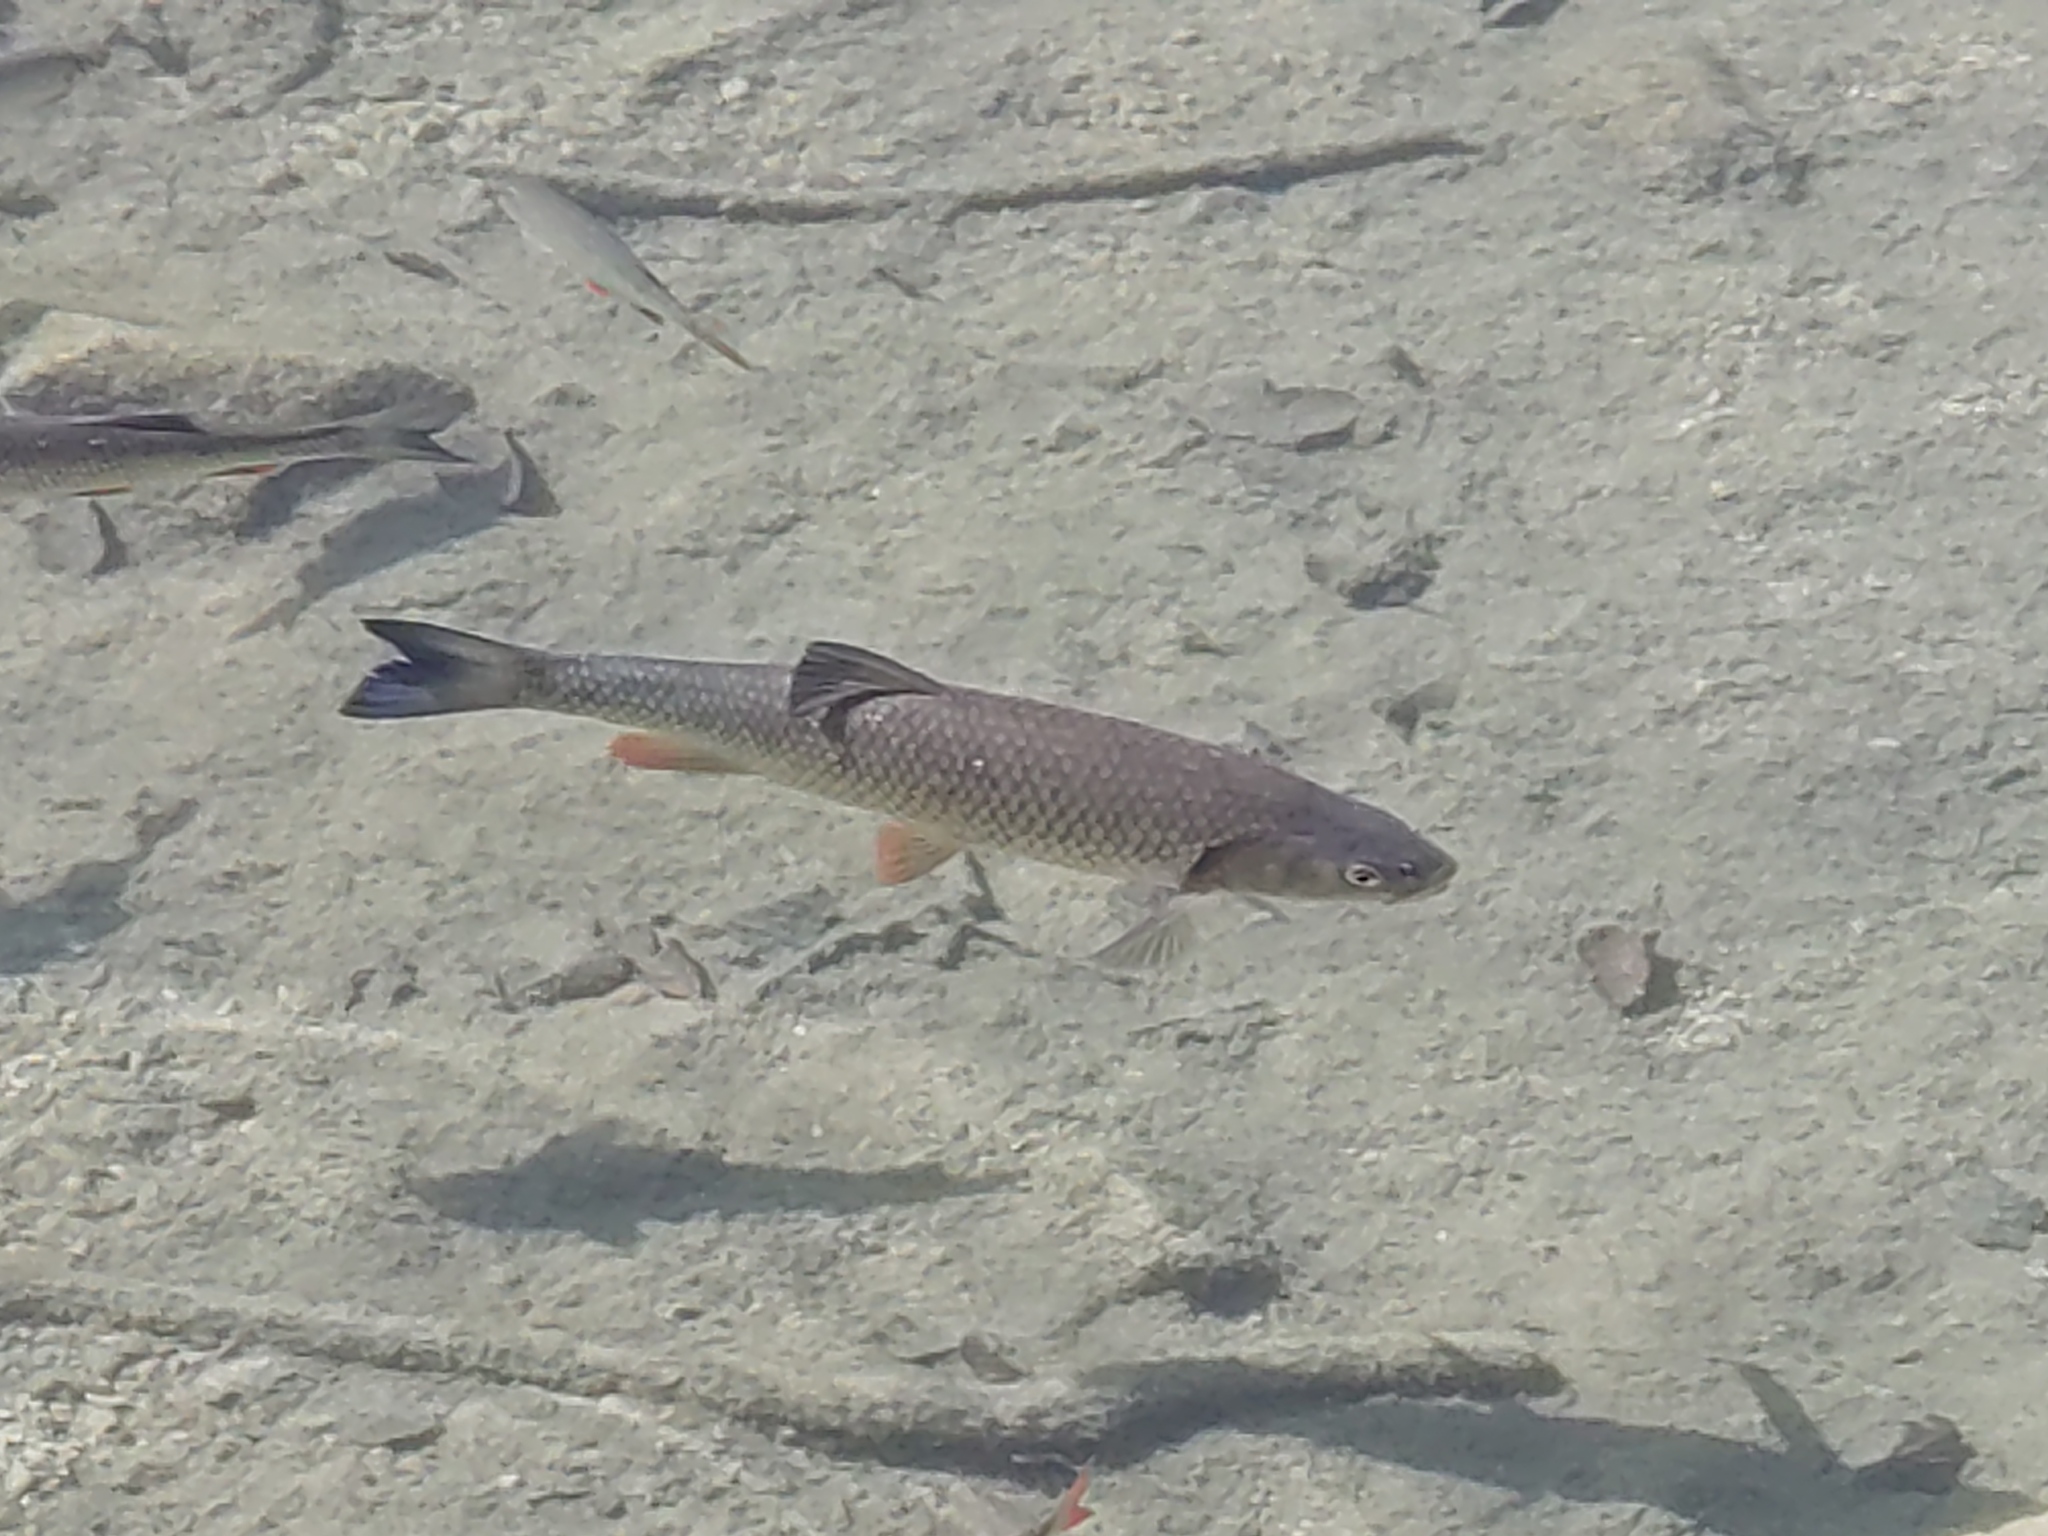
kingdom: Animalia
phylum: Chordata
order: Cypriniformes
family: Cyprinidae
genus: Squalius
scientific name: Squalius cephalus
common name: Chub
